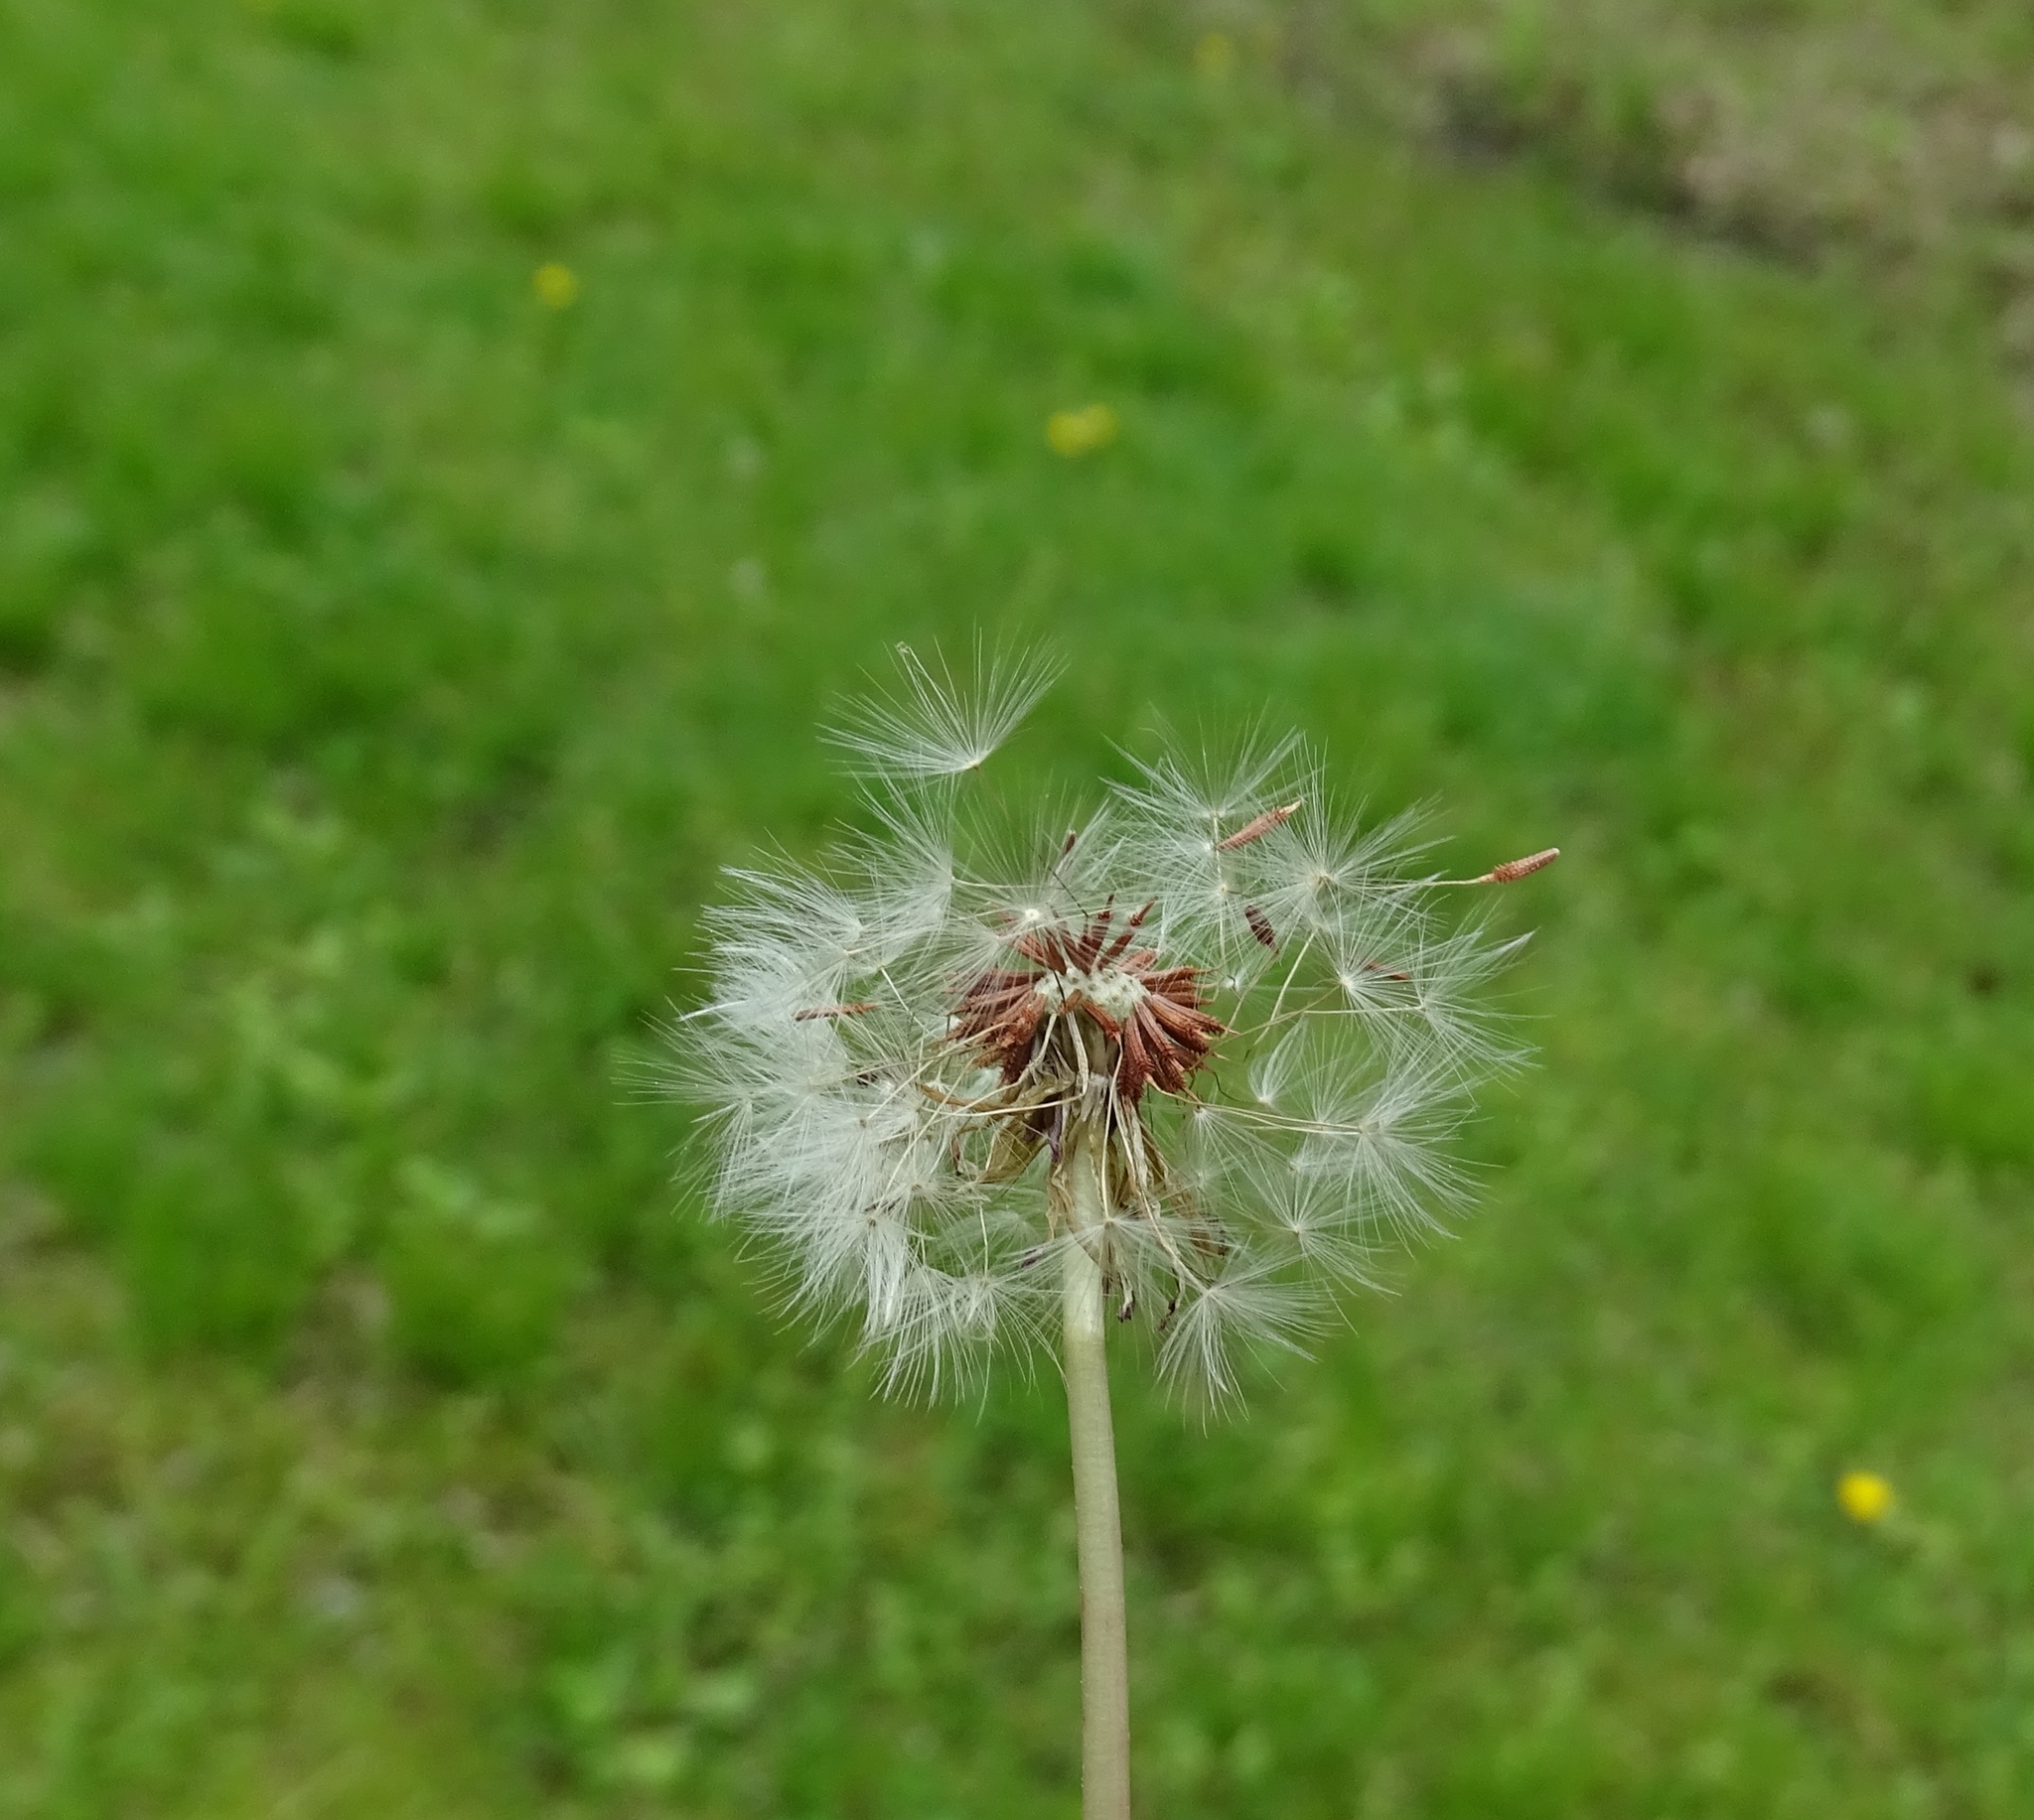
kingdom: Plantae
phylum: Tracheophyta
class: Magnoliopsida
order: Asterales
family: Asteraceae
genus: Taraxacum
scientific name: Taraxacum erythrospermum
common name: Rock dandelion
